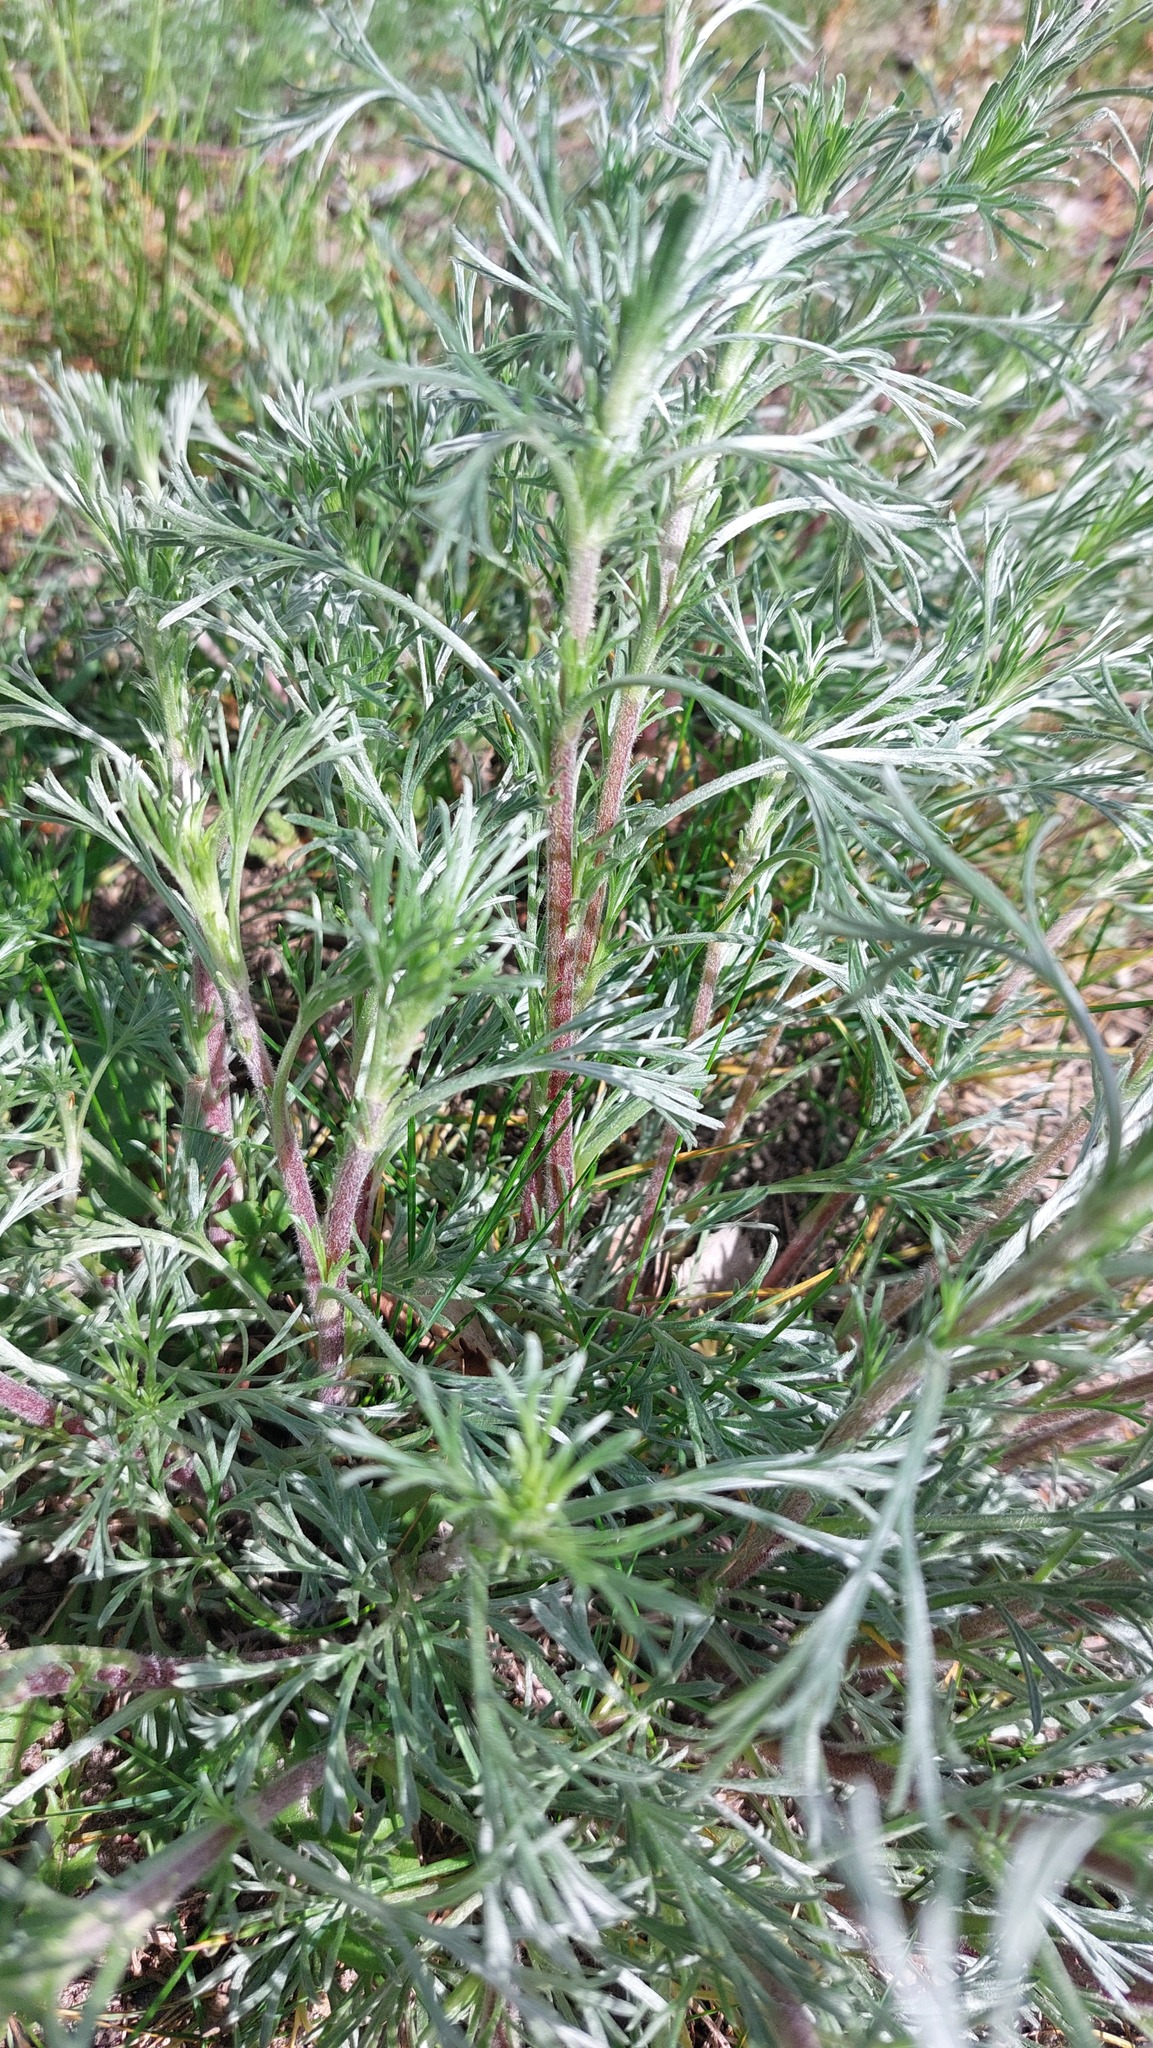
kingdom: Plantae
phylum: Tracheophyta
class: Magnoliopsida
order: Asterales
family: Asteraceae
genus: Artemisia
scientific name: Artemisia campestris
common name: Field wormwood
